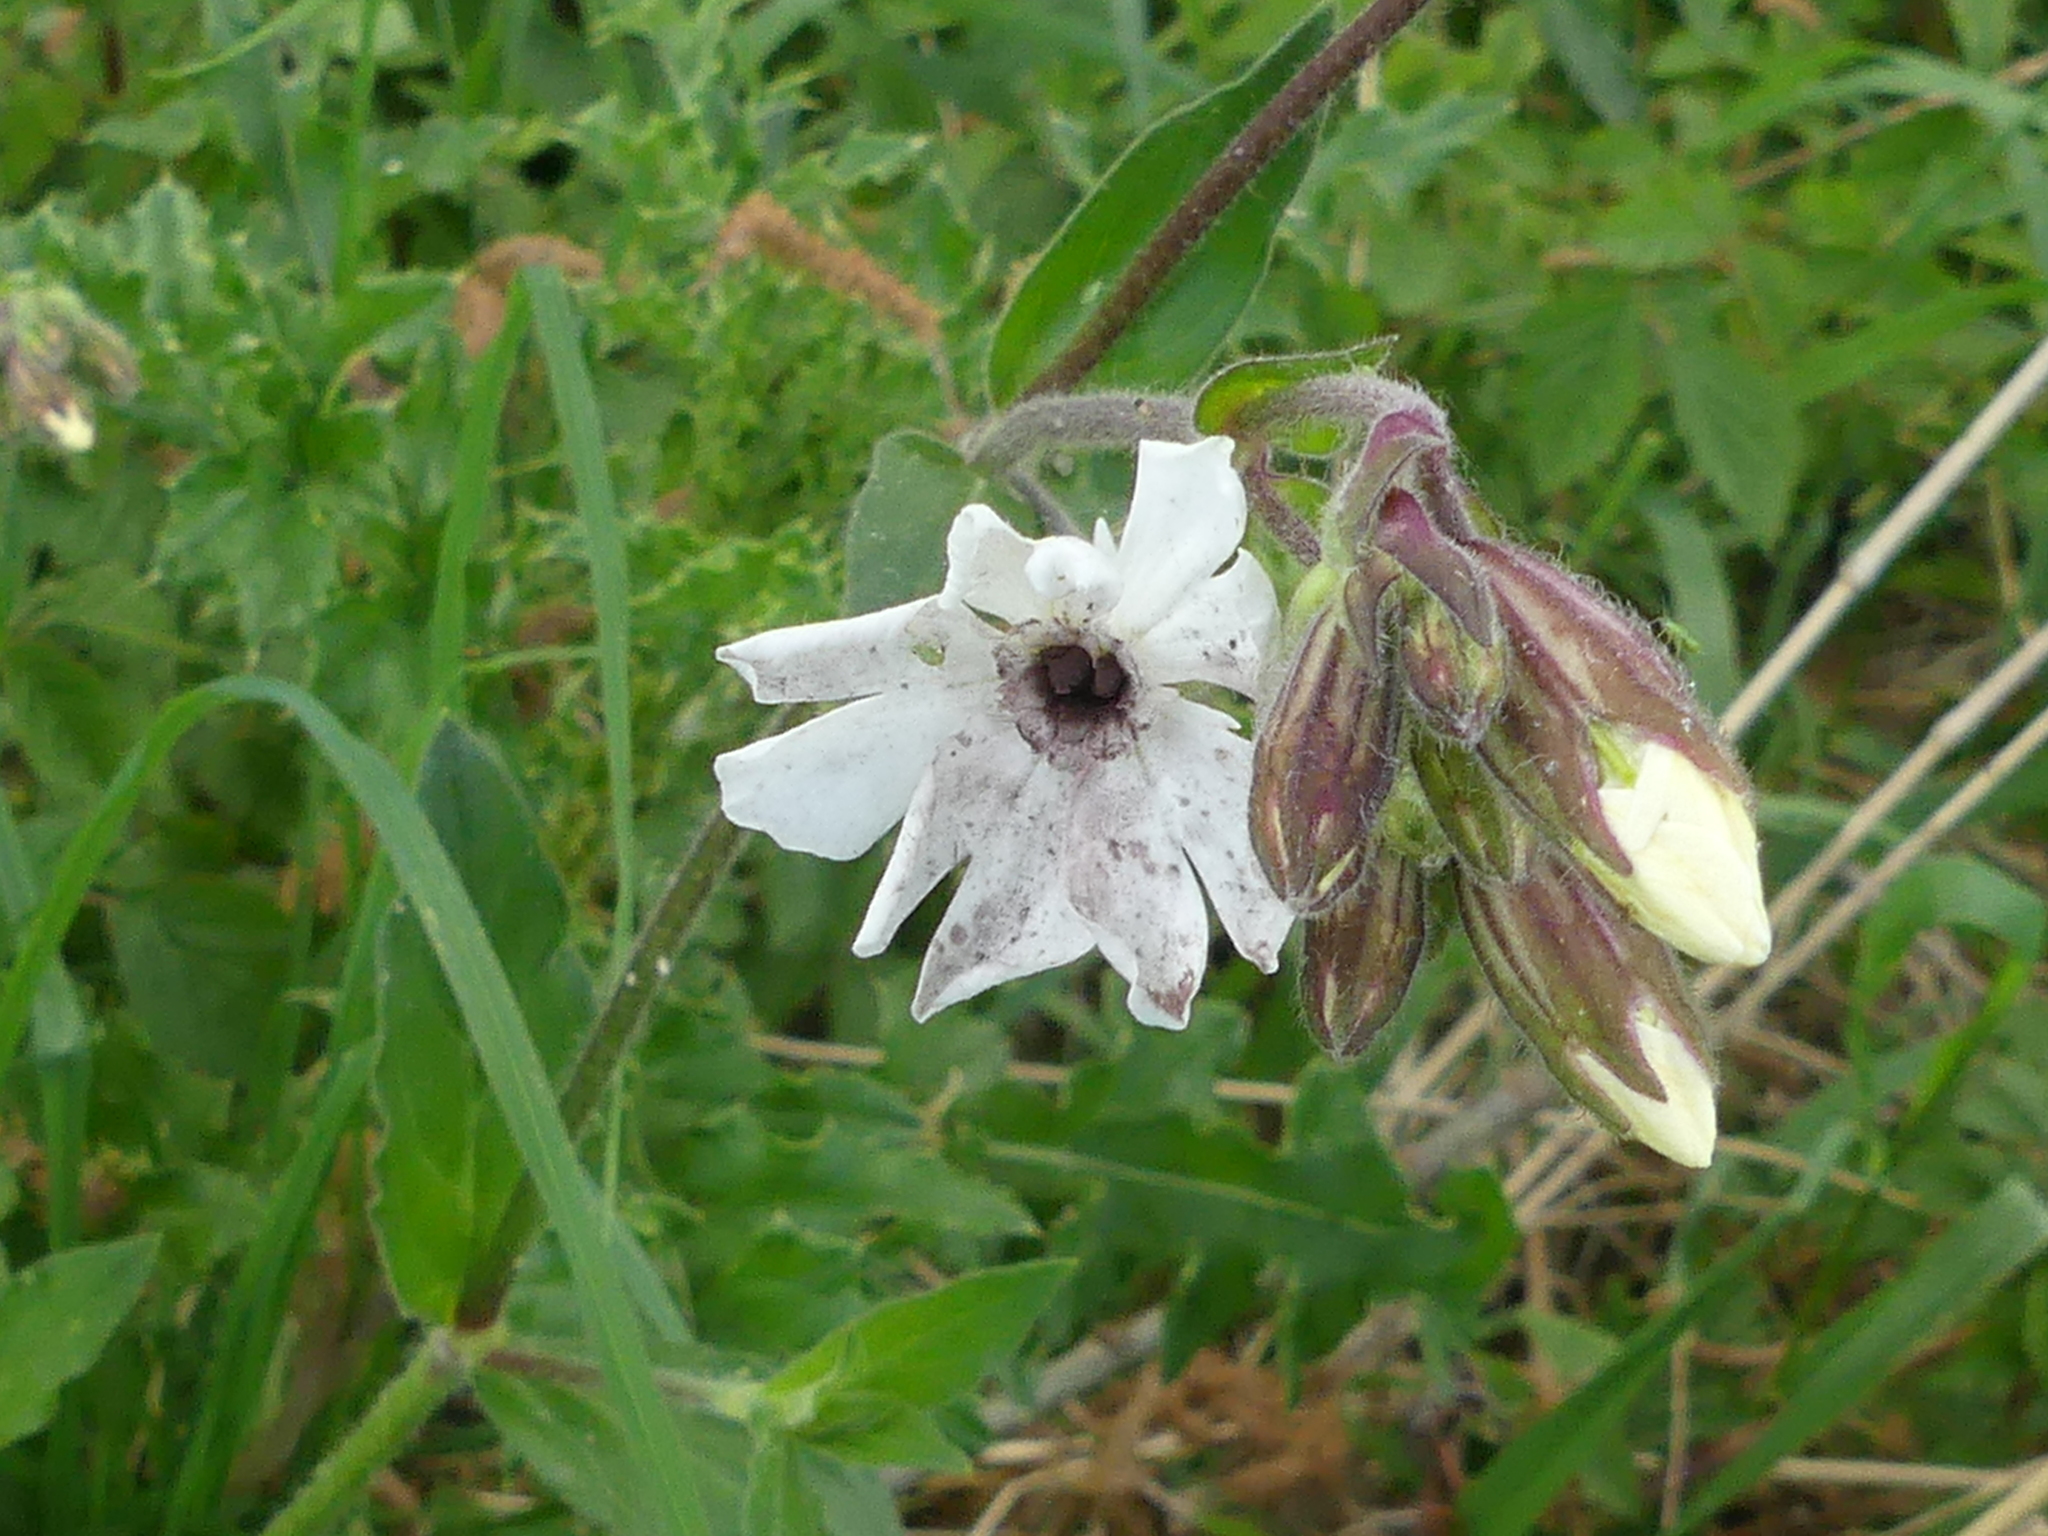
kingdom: Fungi
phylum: Basidiomycota
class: Microbotryomycetes
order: Microbotryales
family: Microbotryaceae
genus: Microbotryum
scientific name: Microbotryum lychnidis-dioicae
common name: Campion anther smut
